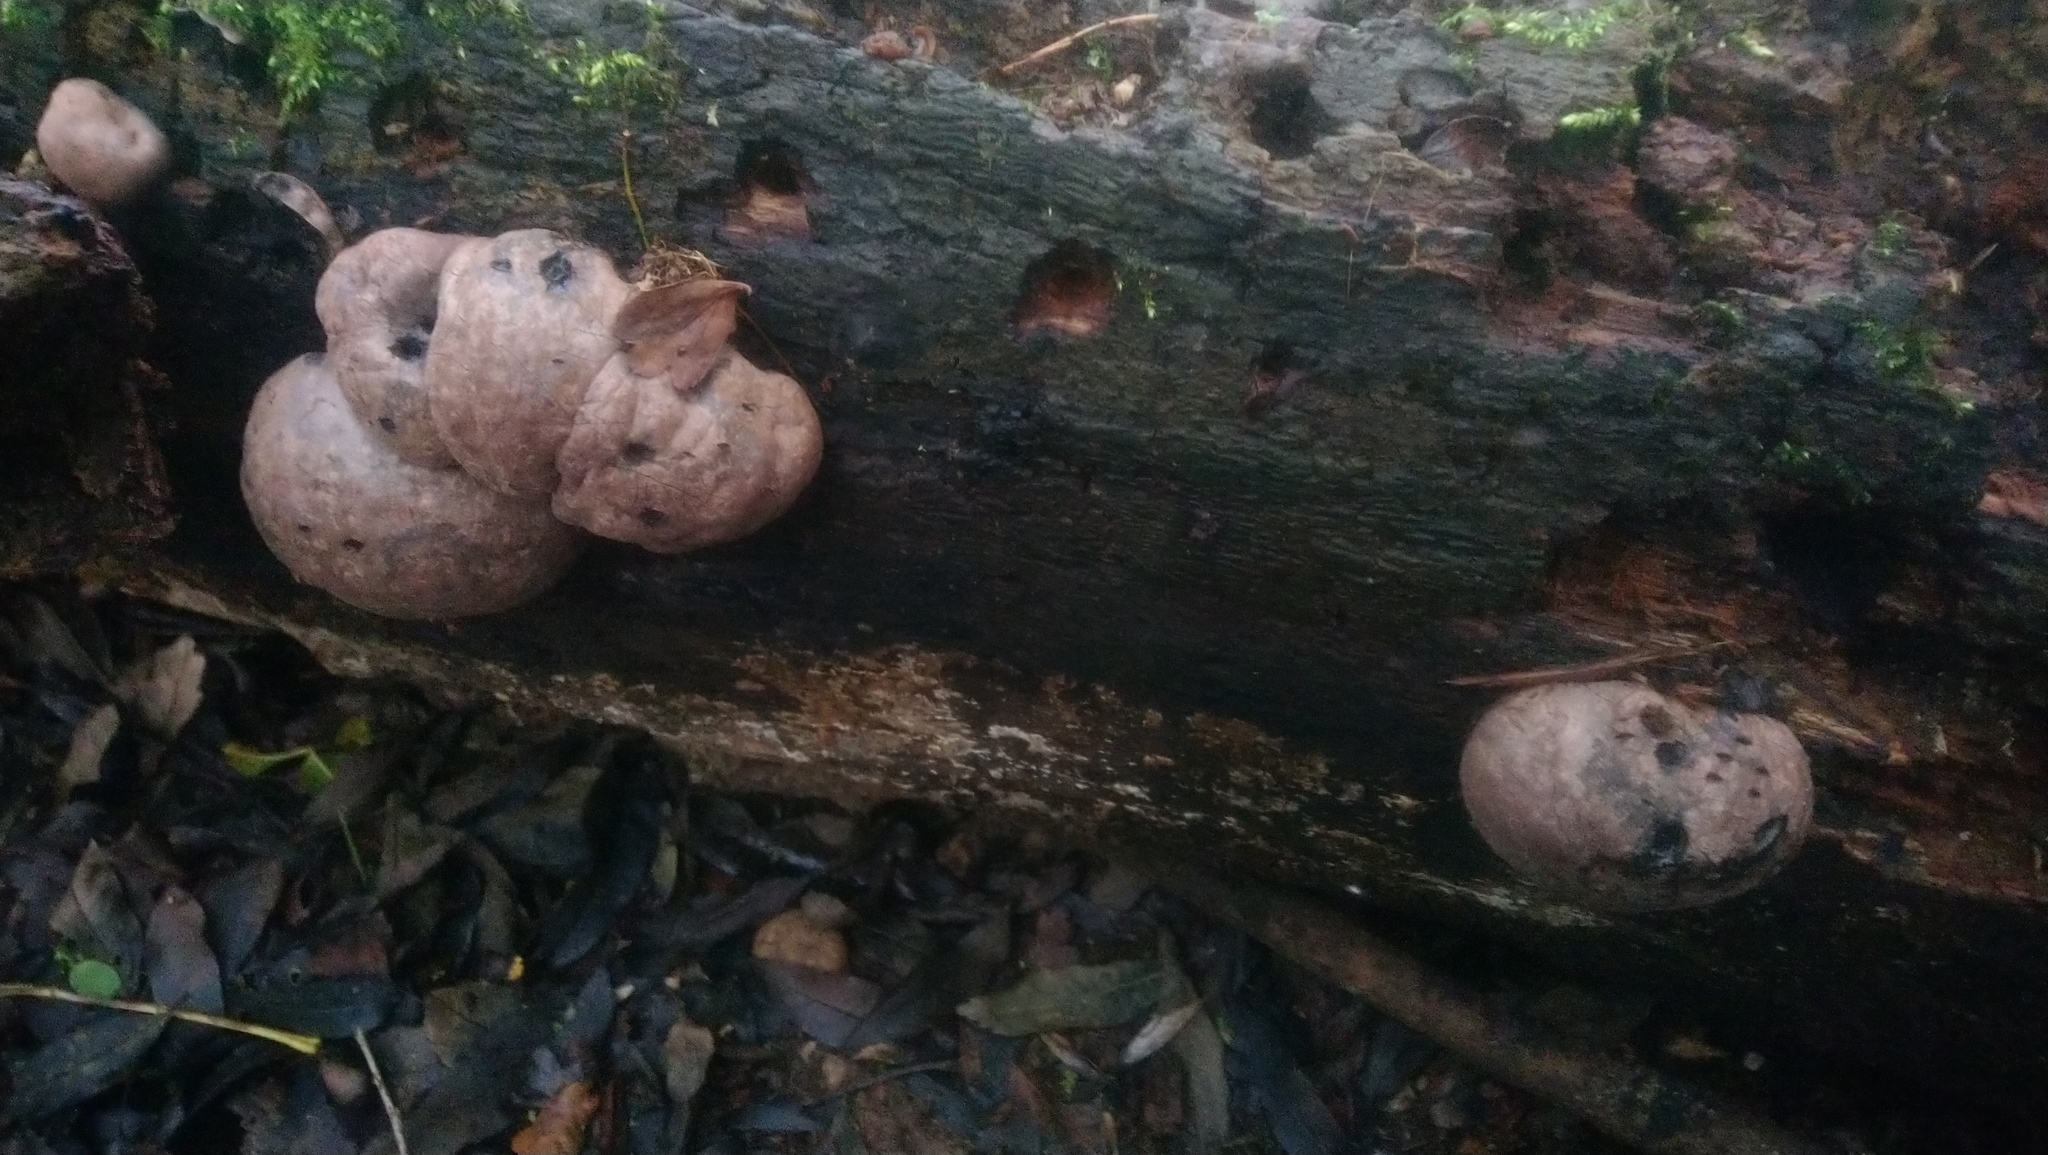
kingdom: Fungi
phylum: Ascomycota
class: Sordariomycetes
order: Xylariales
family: Hypoxylaceae
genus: Daldinia
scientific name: Daldinia concentrica
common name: Cramp balls
